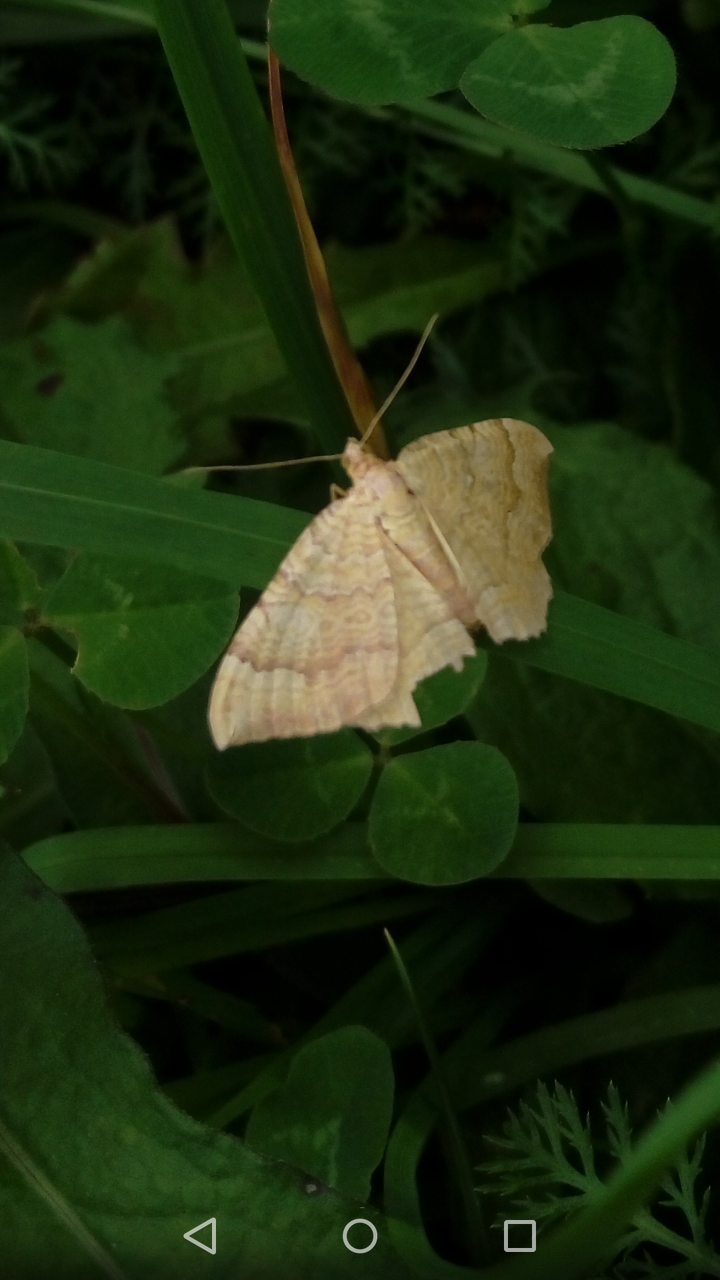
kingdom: Animalia
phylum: Arthropoda
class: Insecta
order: Lepidoptera
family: Geometridae
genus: Camptogramma
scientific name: Camptogramma bilineata
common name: Yellow shell
